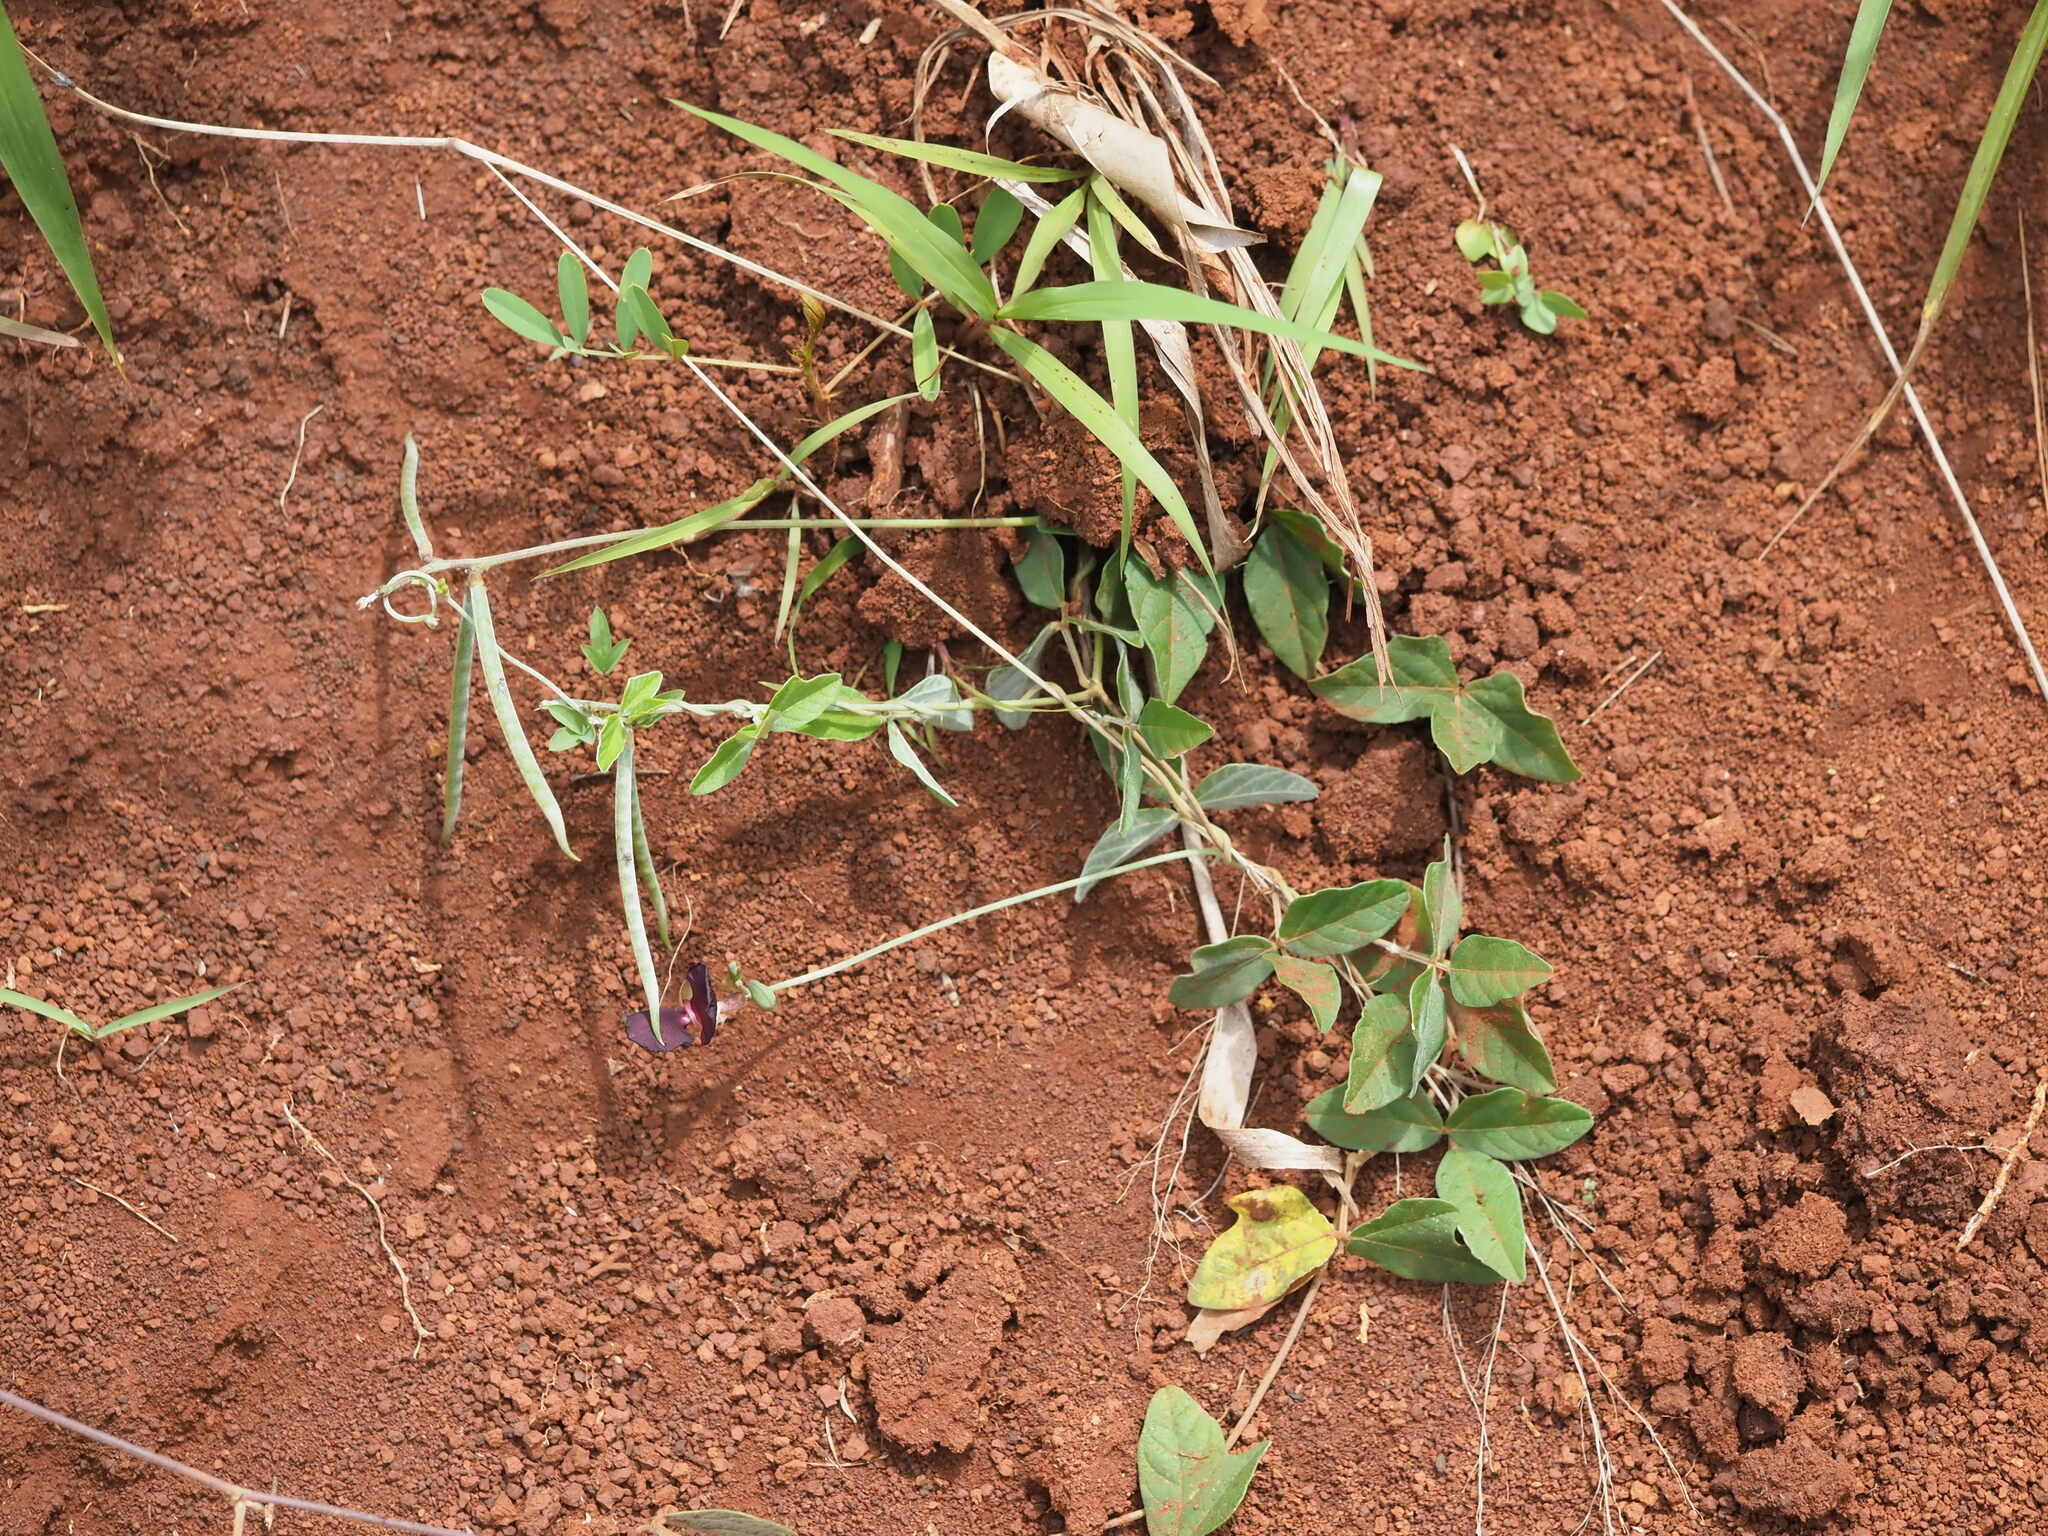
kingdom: Plantae
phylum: Tracheophyta
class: Magnoliopsida
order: Fabales
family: Fabaceae
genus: Macroptilium
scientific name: Macroptilium atropurpureum
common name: Purple bushbean
